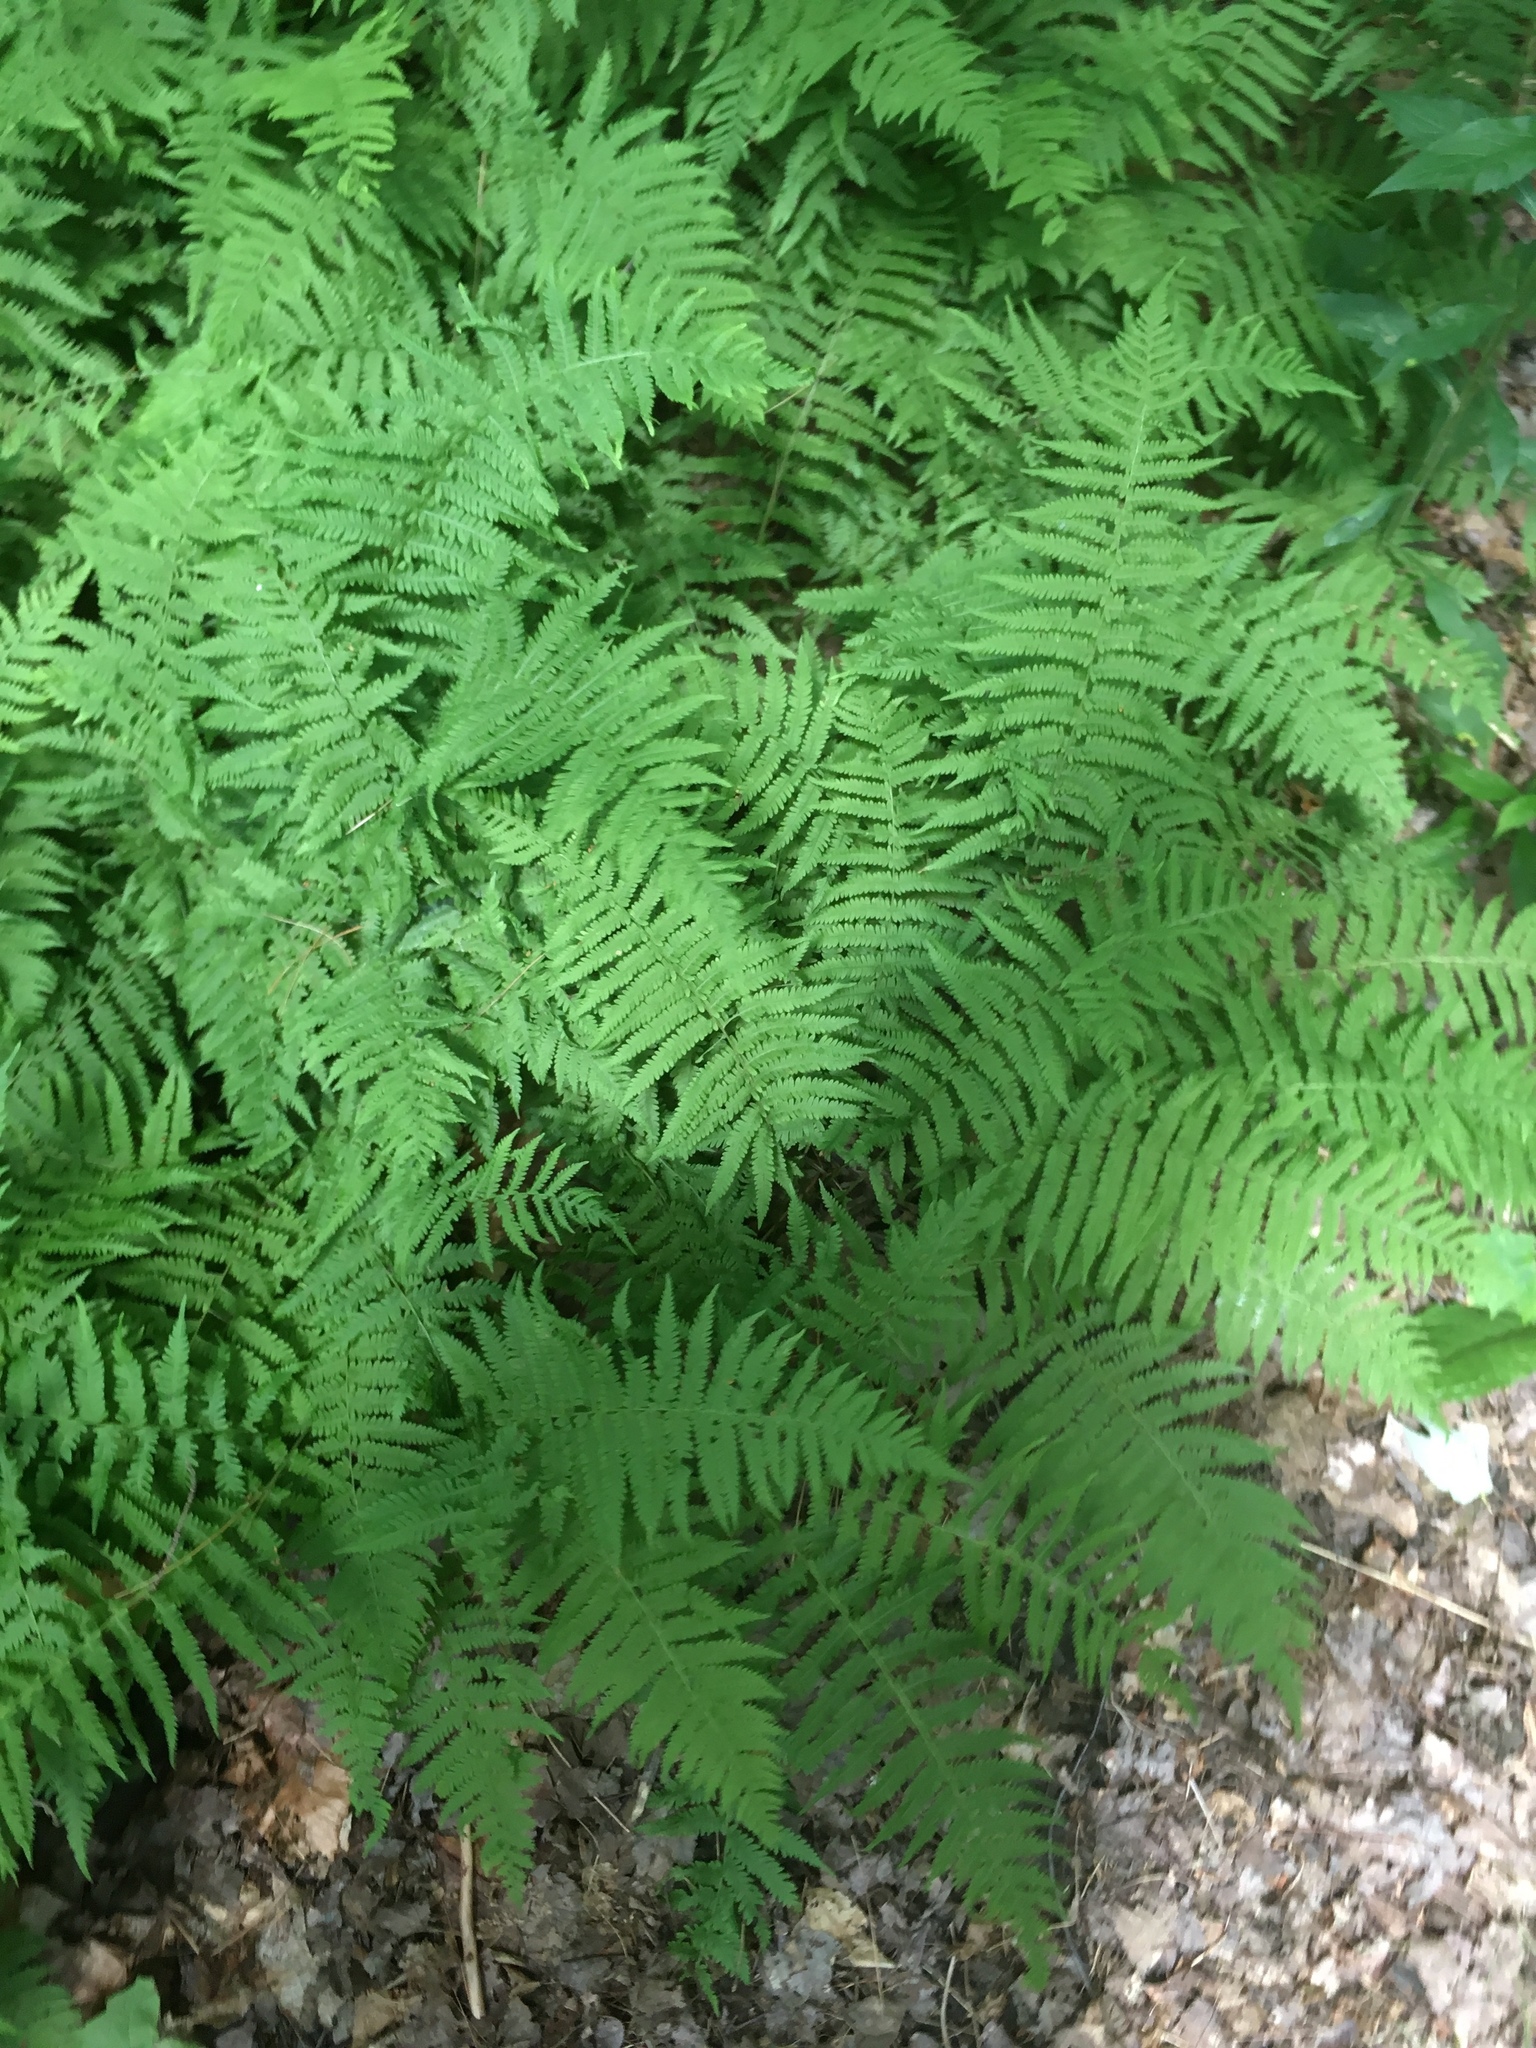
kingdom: Plantae
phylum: Tracheophyta
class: Polypodiopsida
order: Polypodiales
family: Thelypteridaceae
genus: Amauropelta
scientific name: Amauropelta noveboracensis
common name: New york fern
